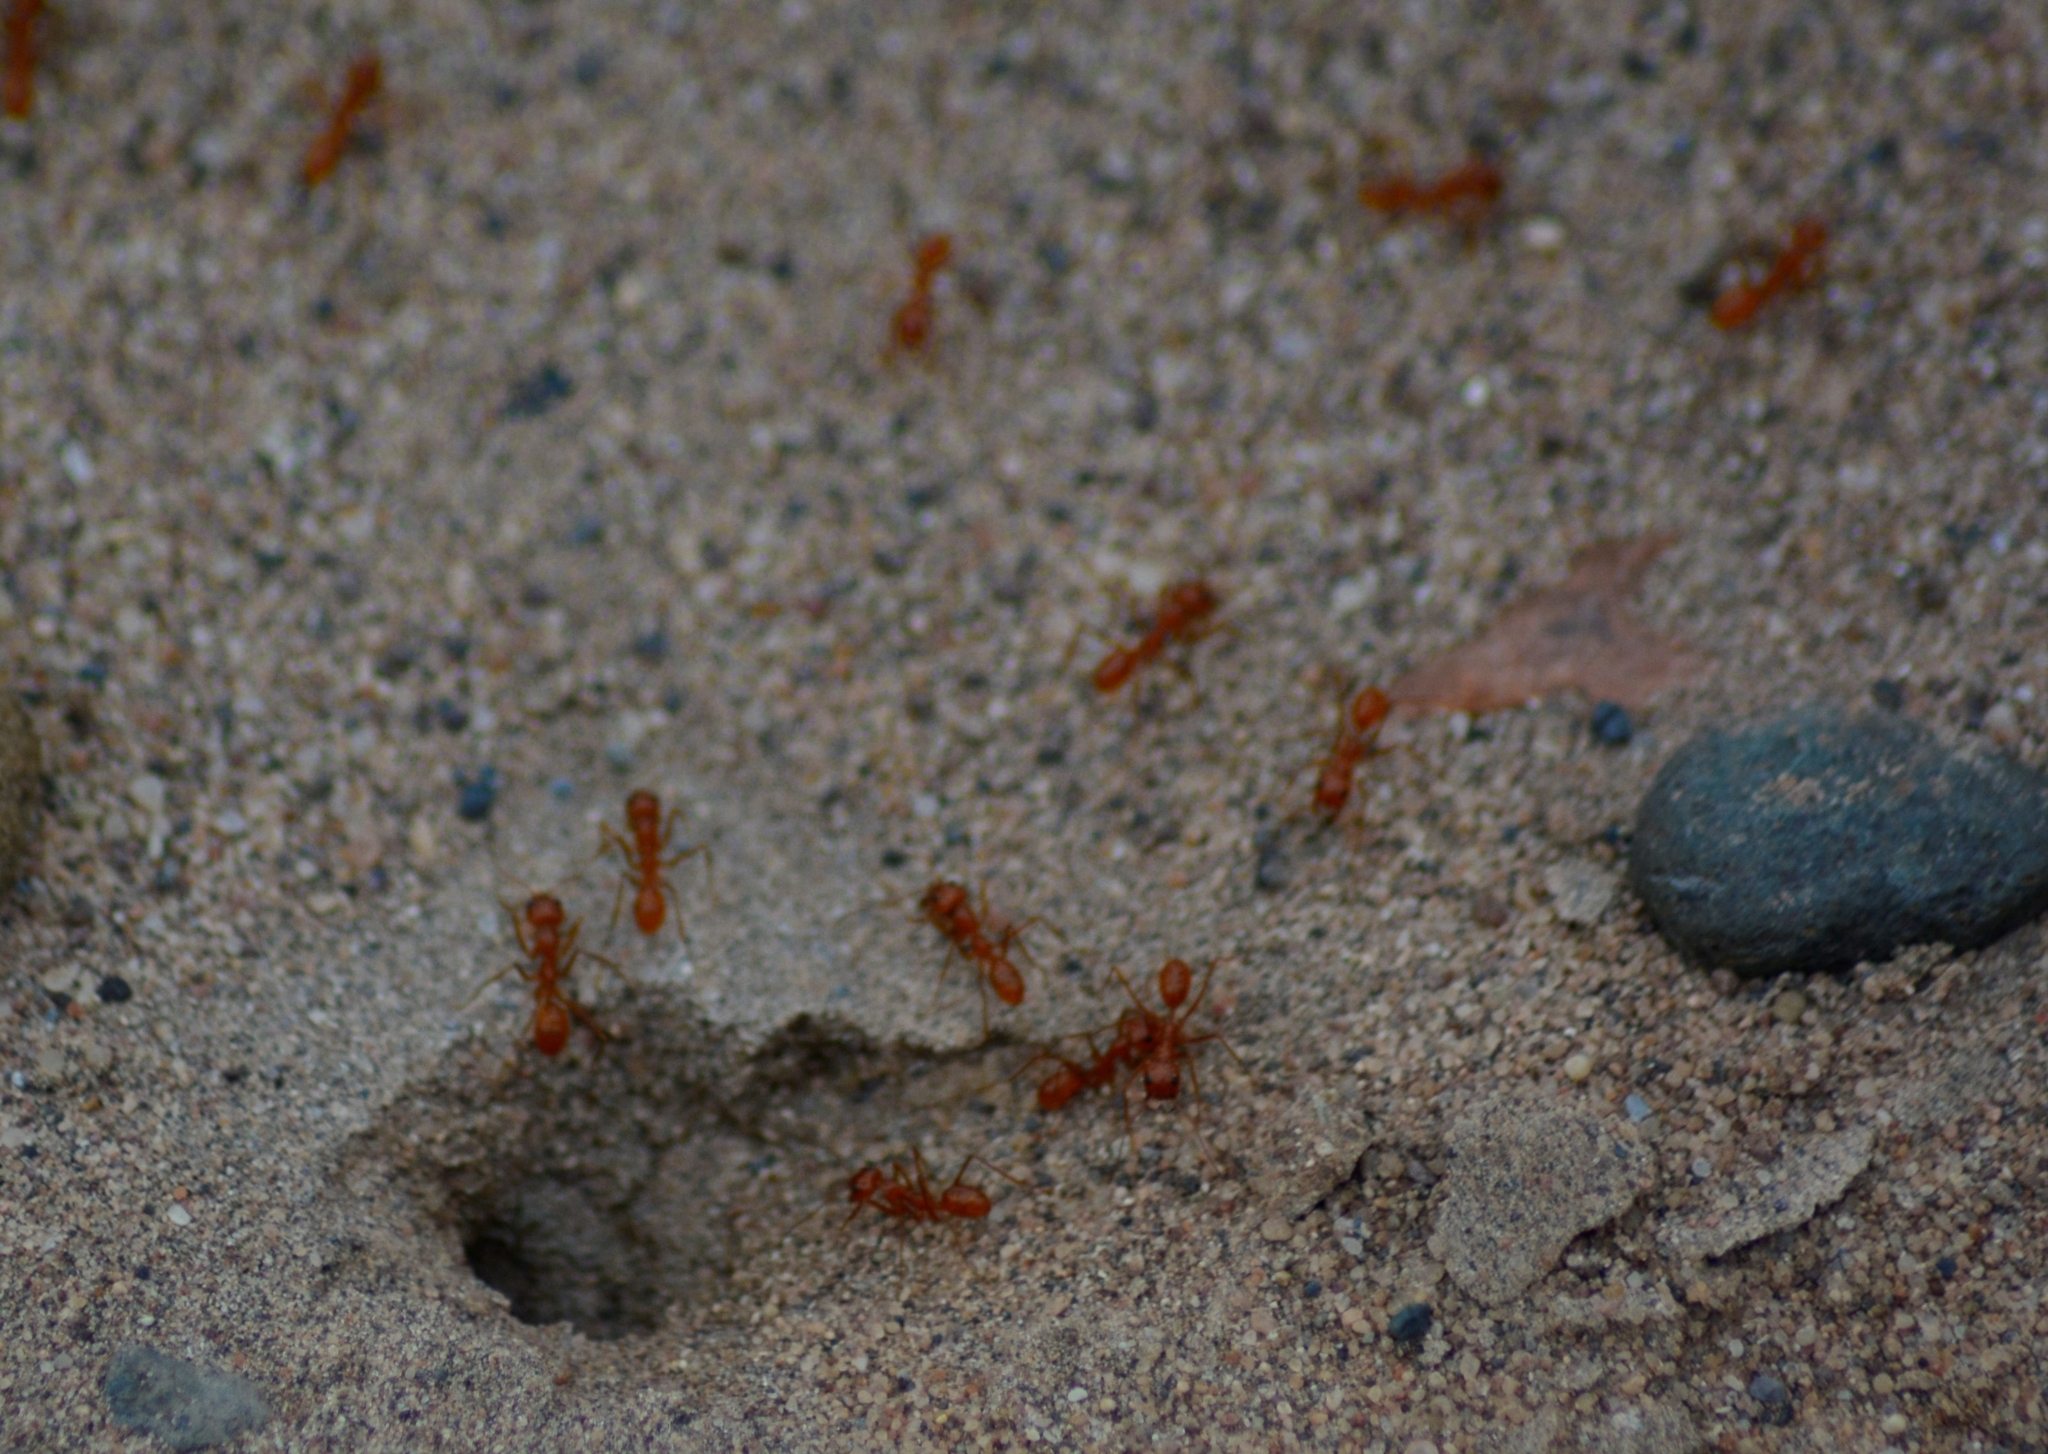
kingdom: Animalia
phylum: Arthropoda
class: Insecta
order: Hymenoptera
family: Formicidae
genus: Dorymyrmex
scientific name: Dorymyrmex planidens
